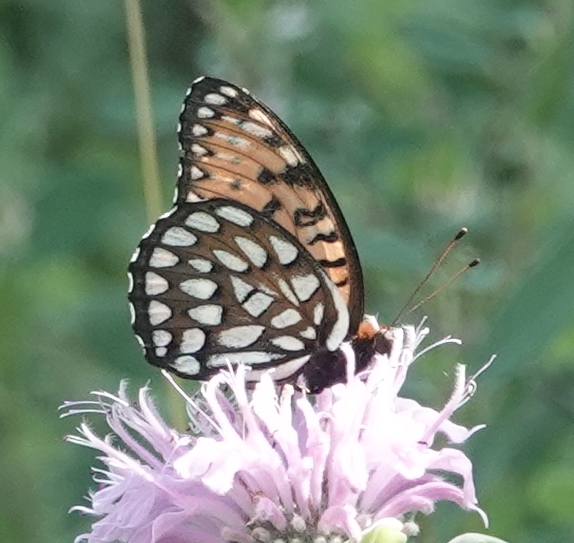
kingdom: Animalia
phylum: Arthropoda
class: Insecta
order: Lepidoptera
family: Nymphalidae
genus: Speyeria
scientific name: Speyeria idalia
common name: Regal fritillary
